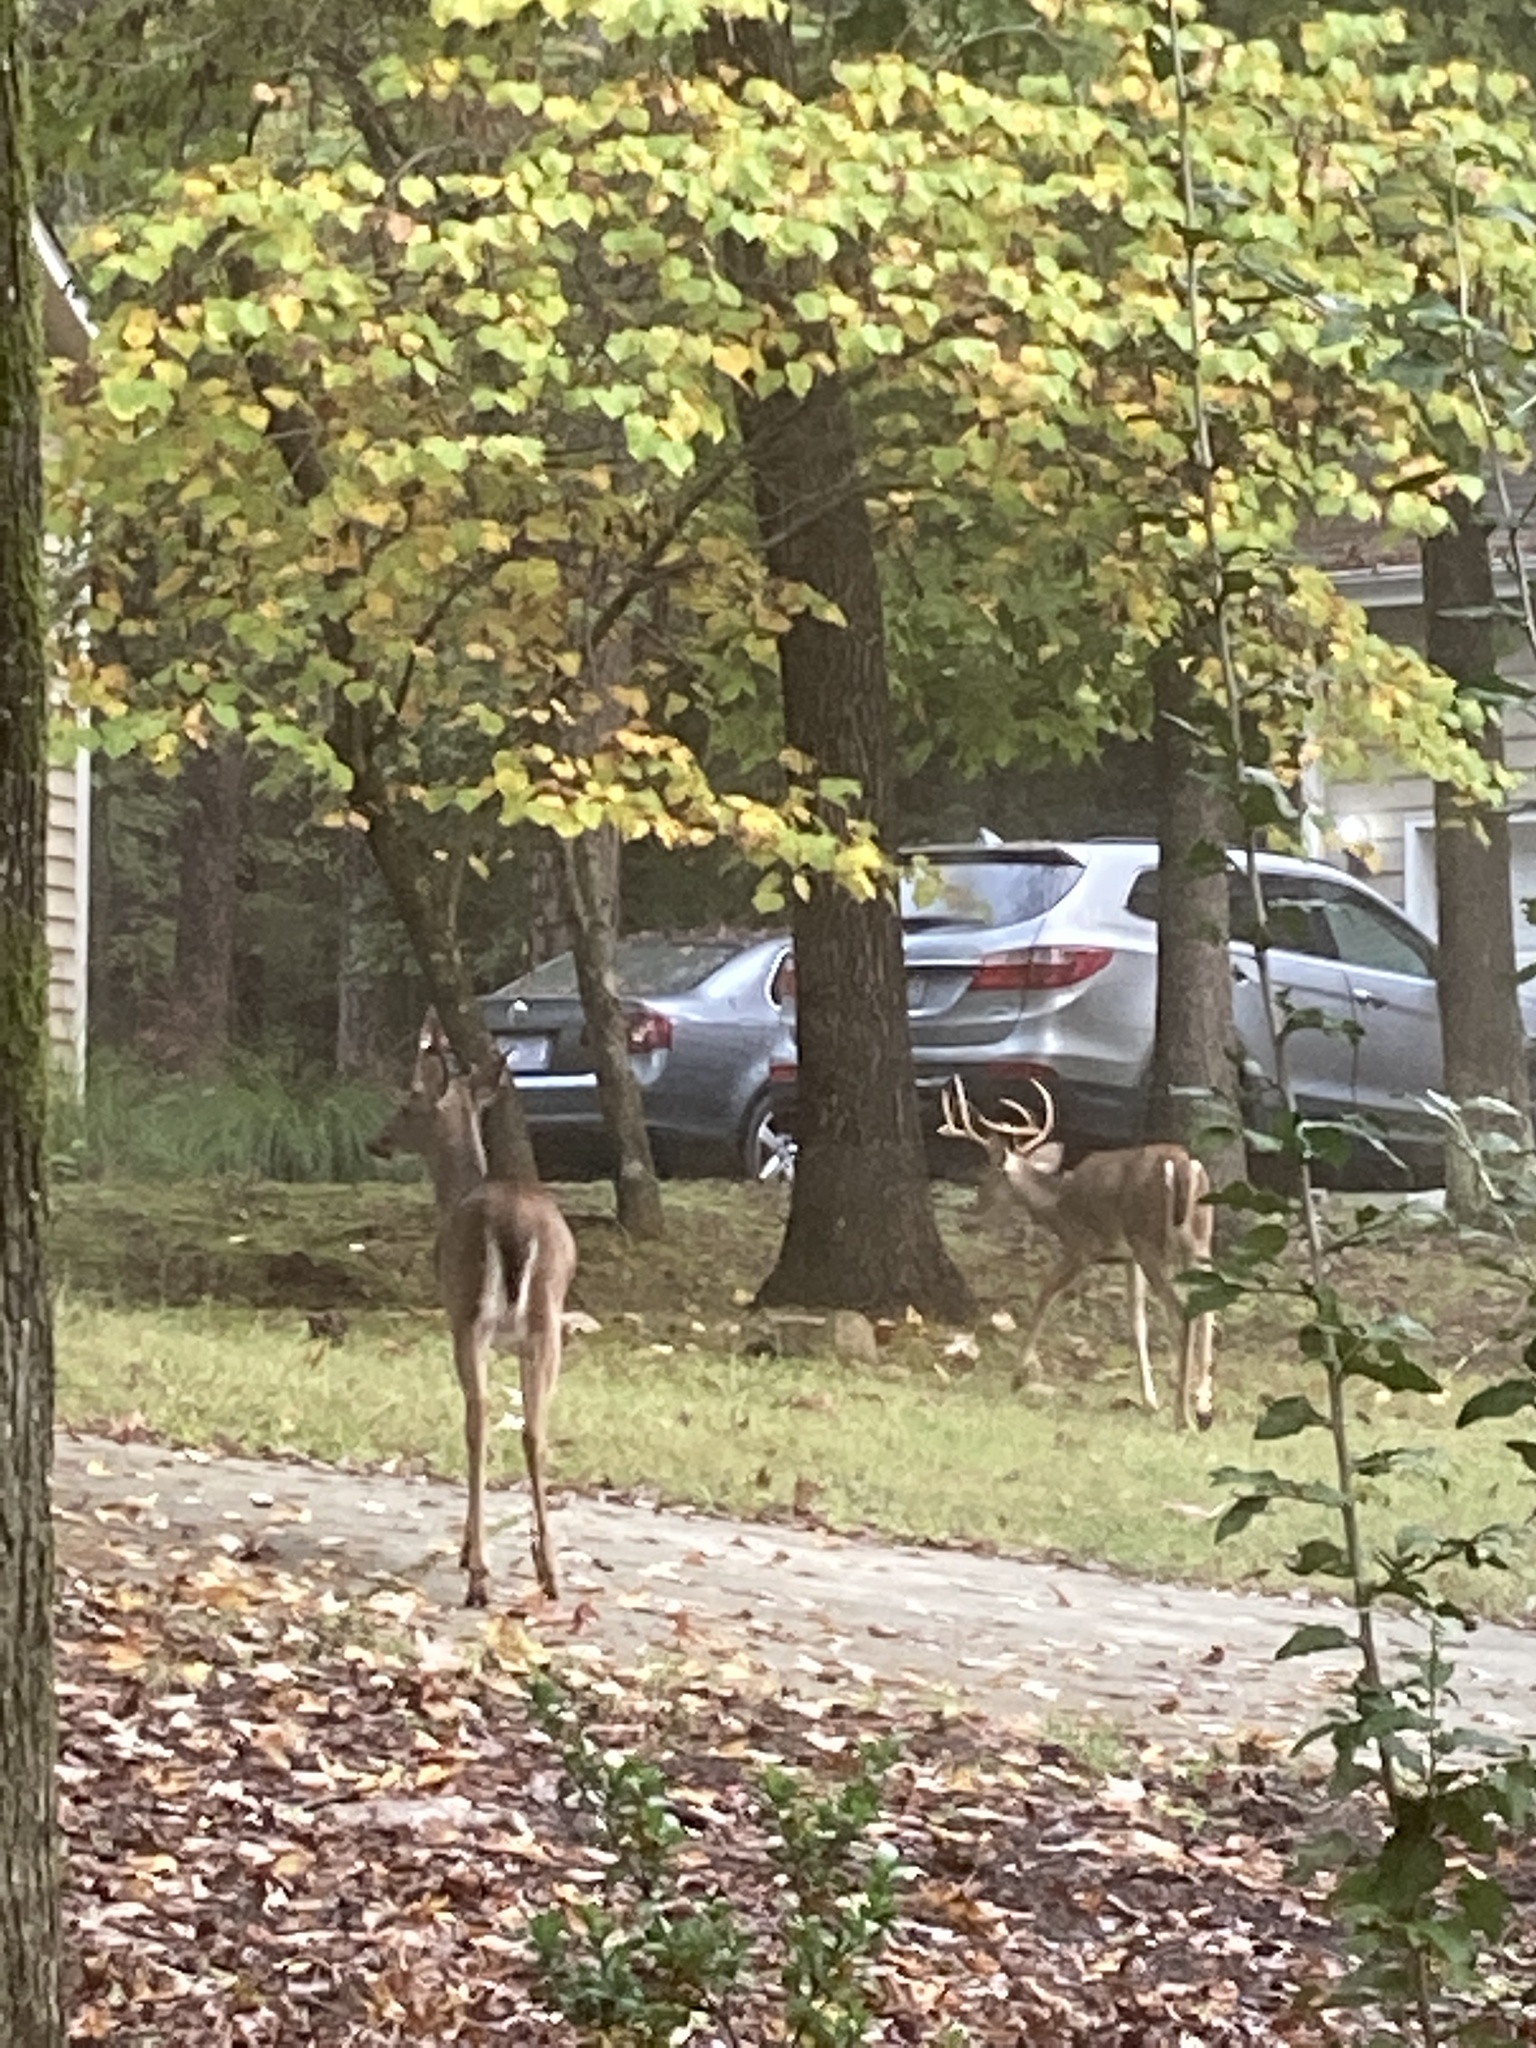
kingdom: Animalia
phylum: Chordata
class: Mammalia
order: Artiodactyla
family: Cervidae
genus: Odocoileus
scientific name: Odocoileus virginianus
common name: White-tailed deer
